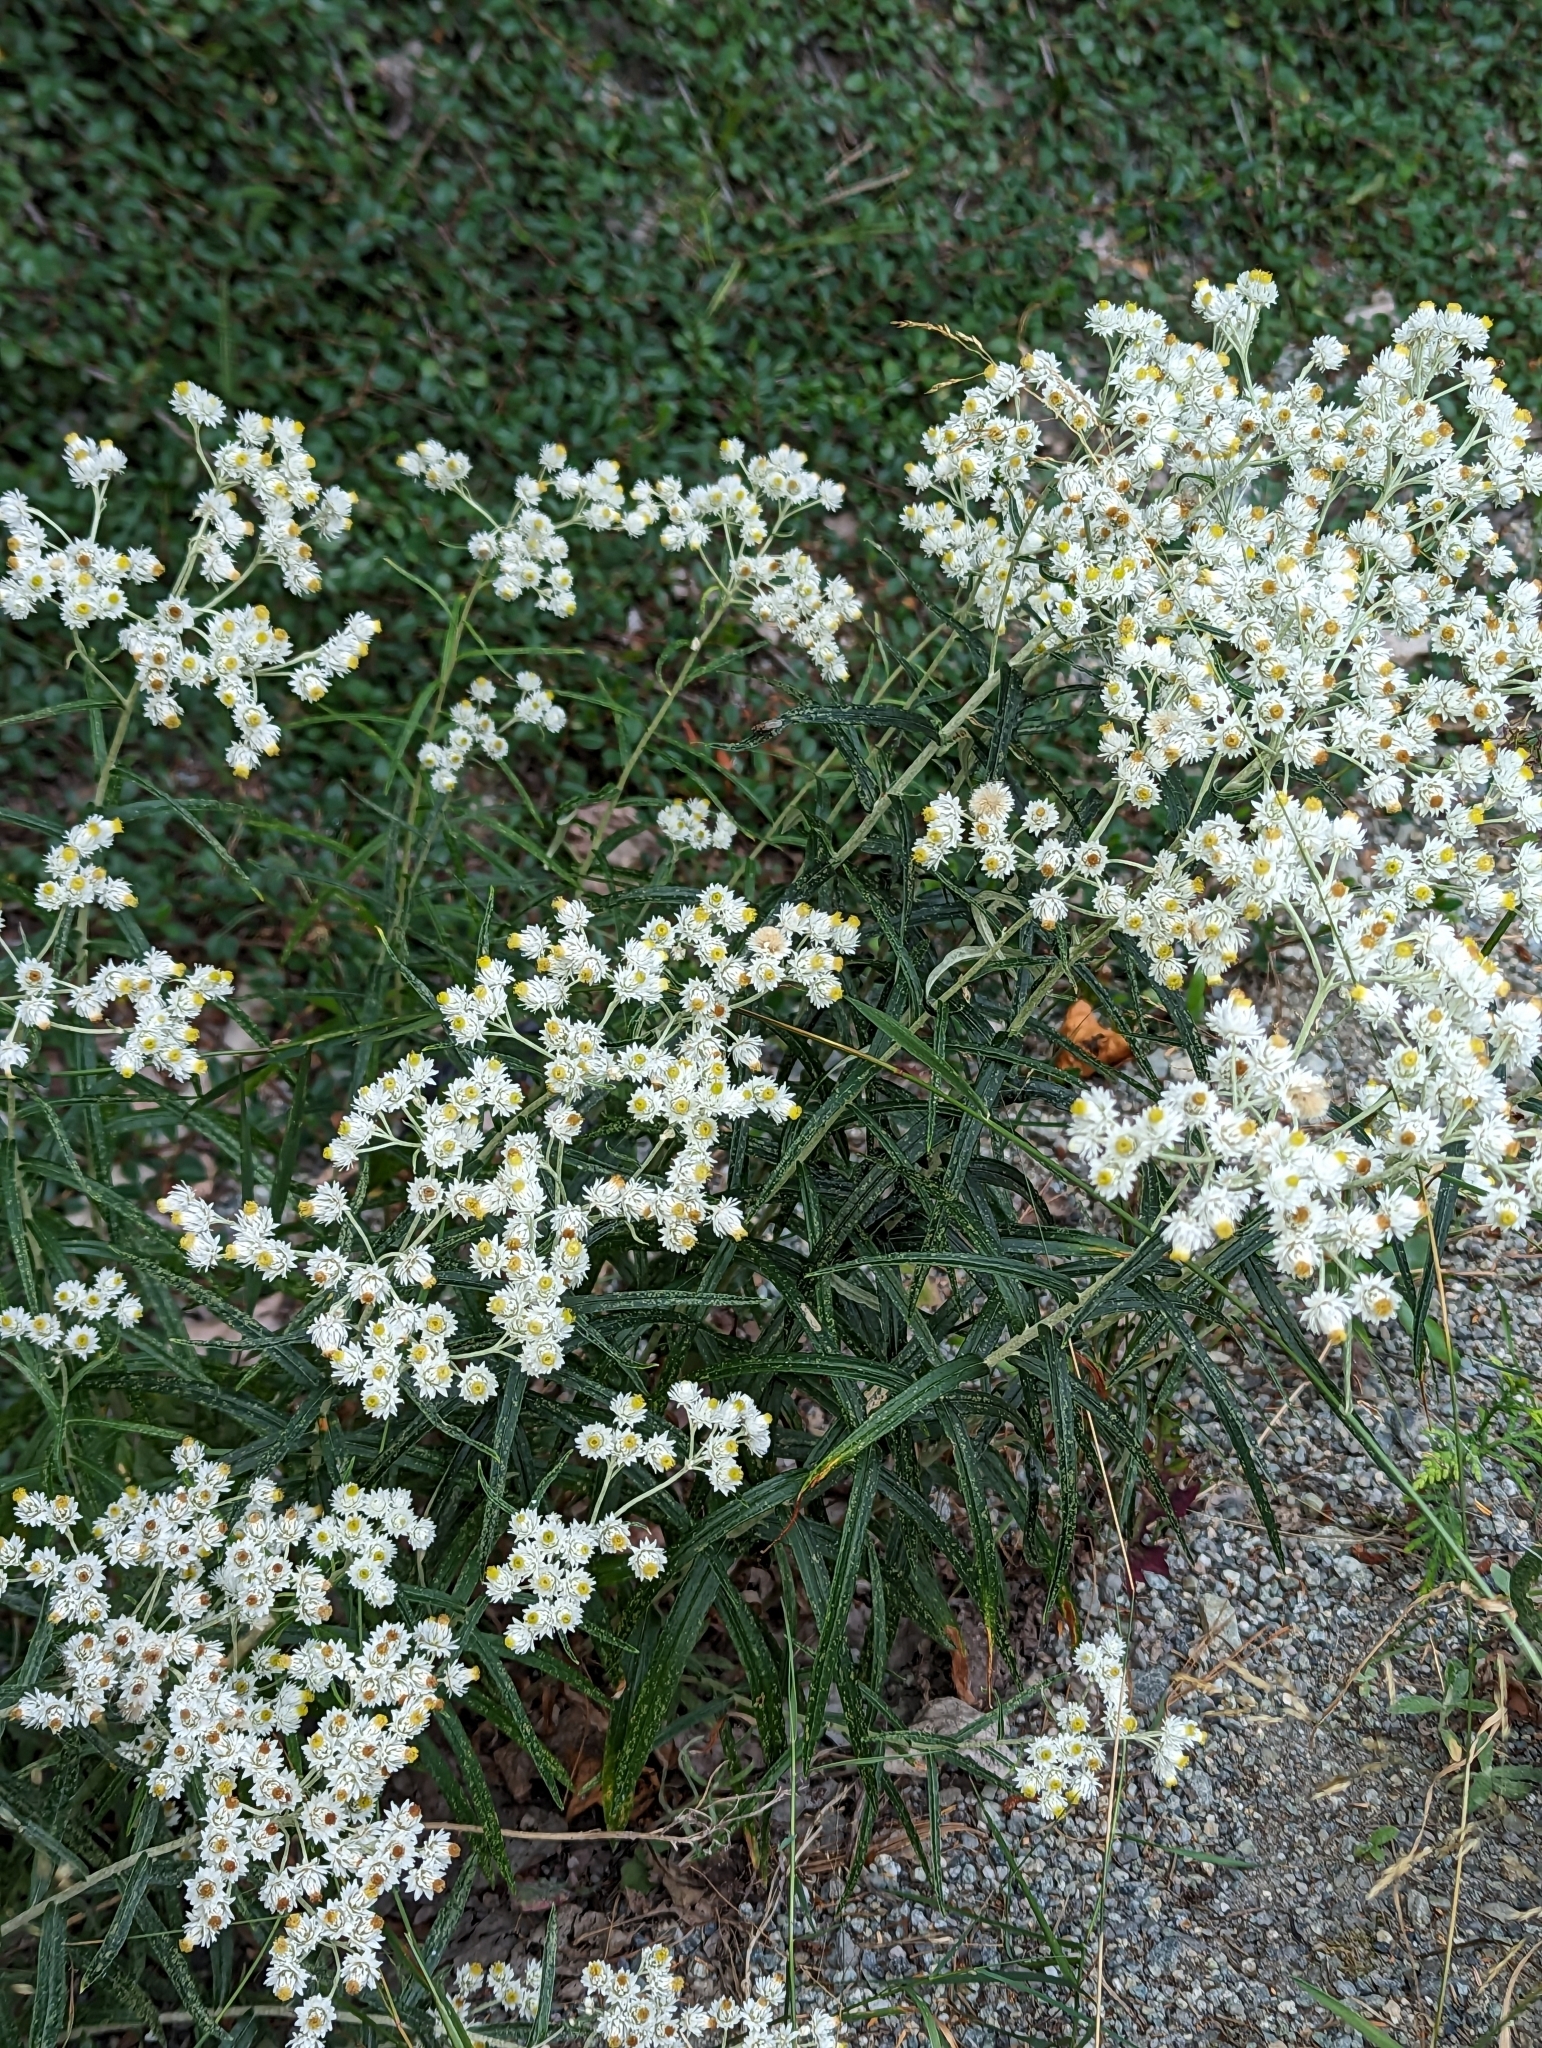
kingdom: Plantae
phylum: Tracheophyta
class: Magnoliopsida
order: Asterales
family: Asteraceae
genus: Anaphalis
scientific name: Anaphalis margaritacea
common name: Pearly everlasting
